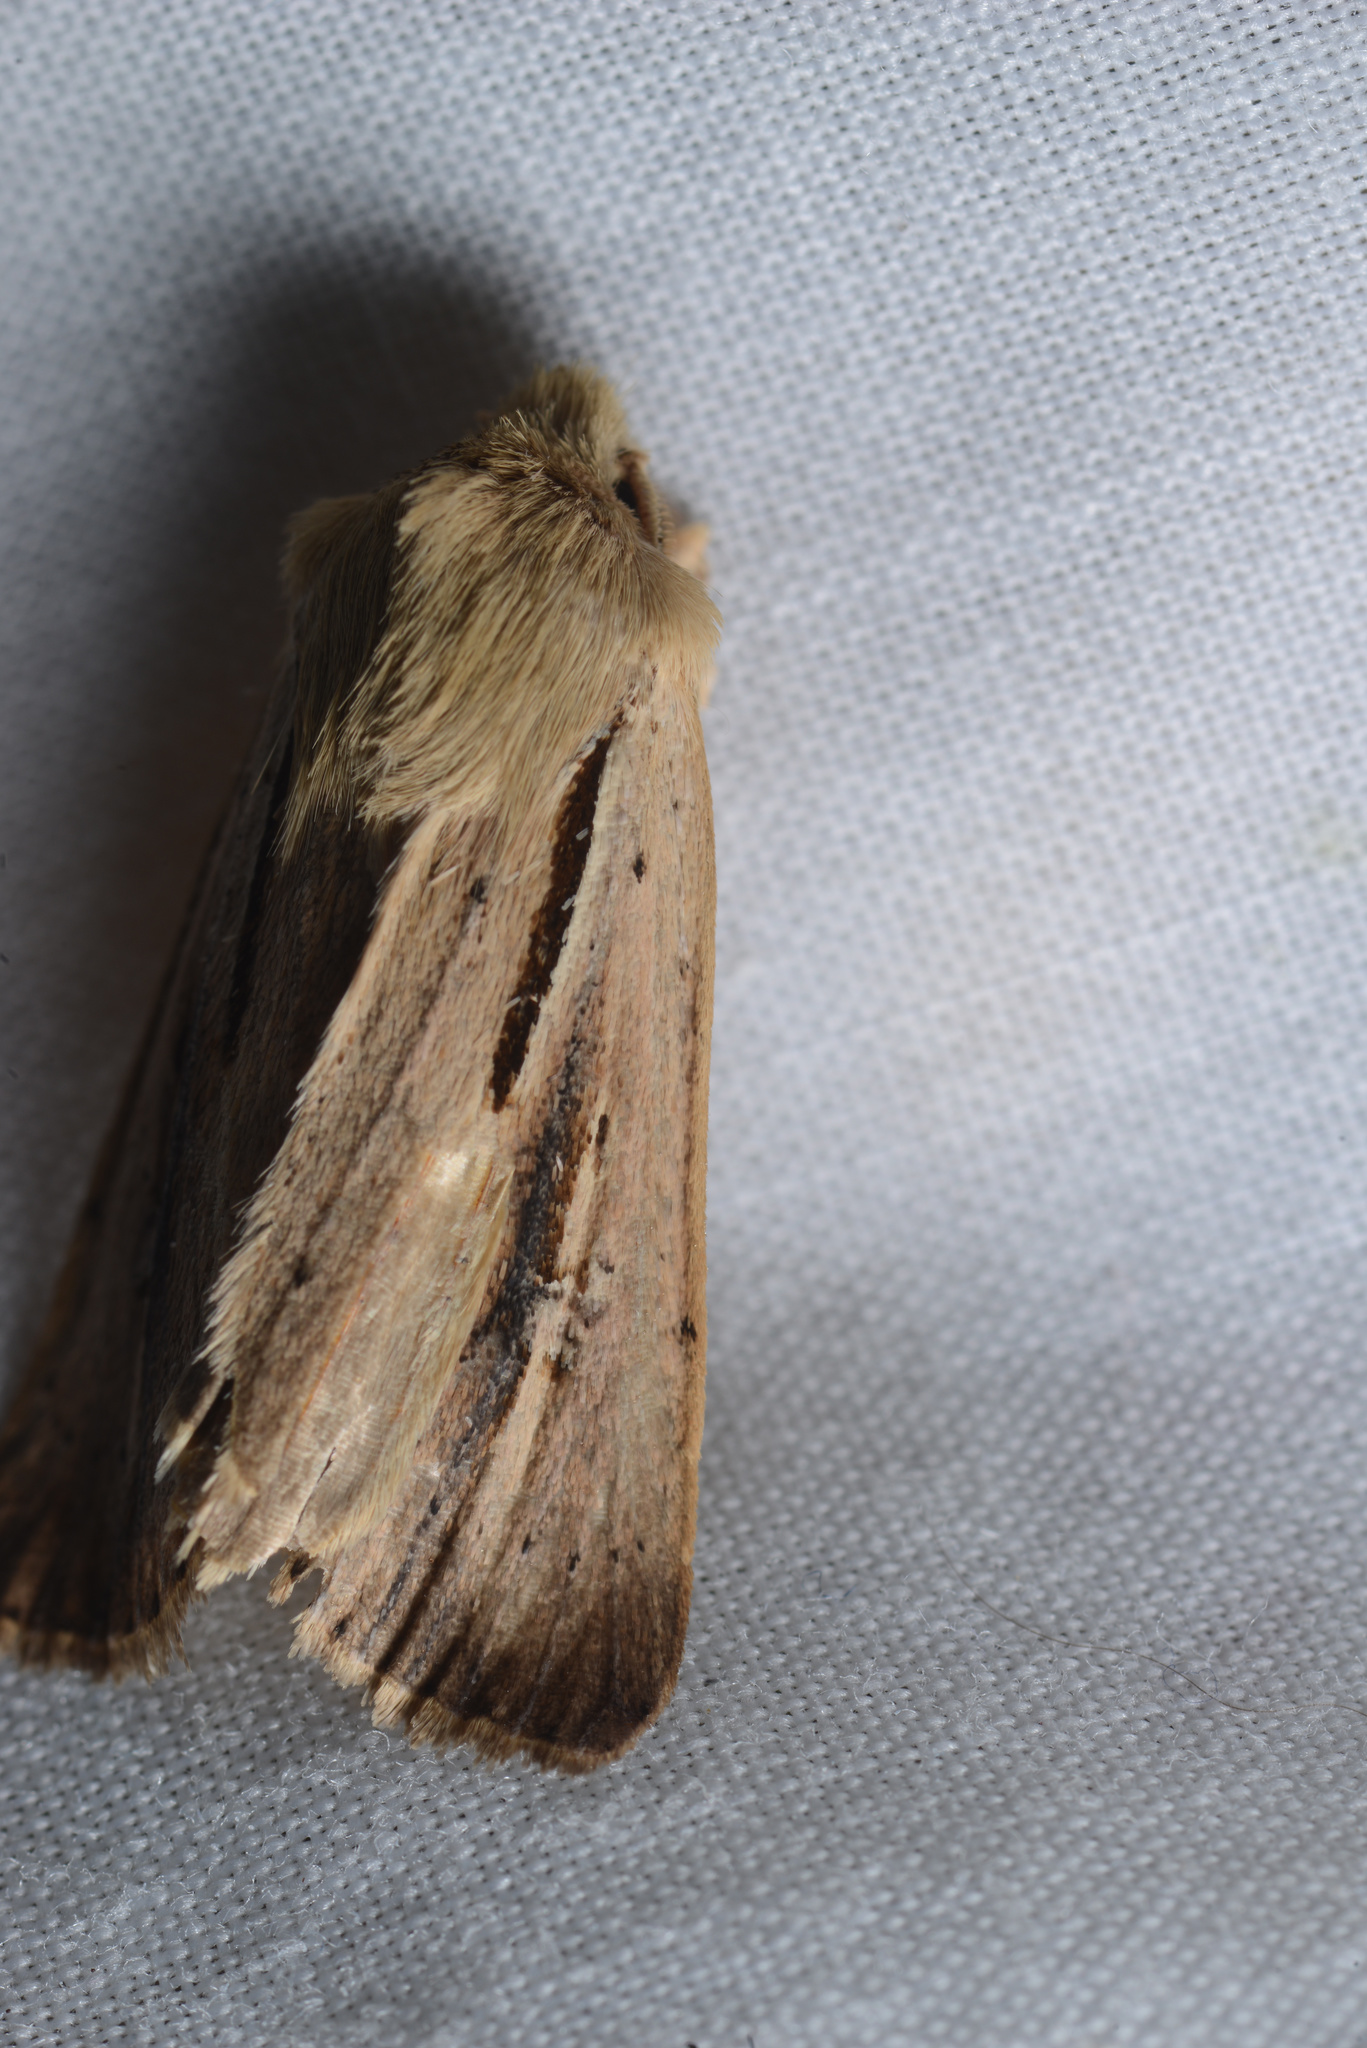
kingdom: Animalia
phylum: Arthropoda
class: Insecta
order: Lepidoptera
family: Noctuidae
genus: Ichneutica
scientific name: Ichneutica propria
